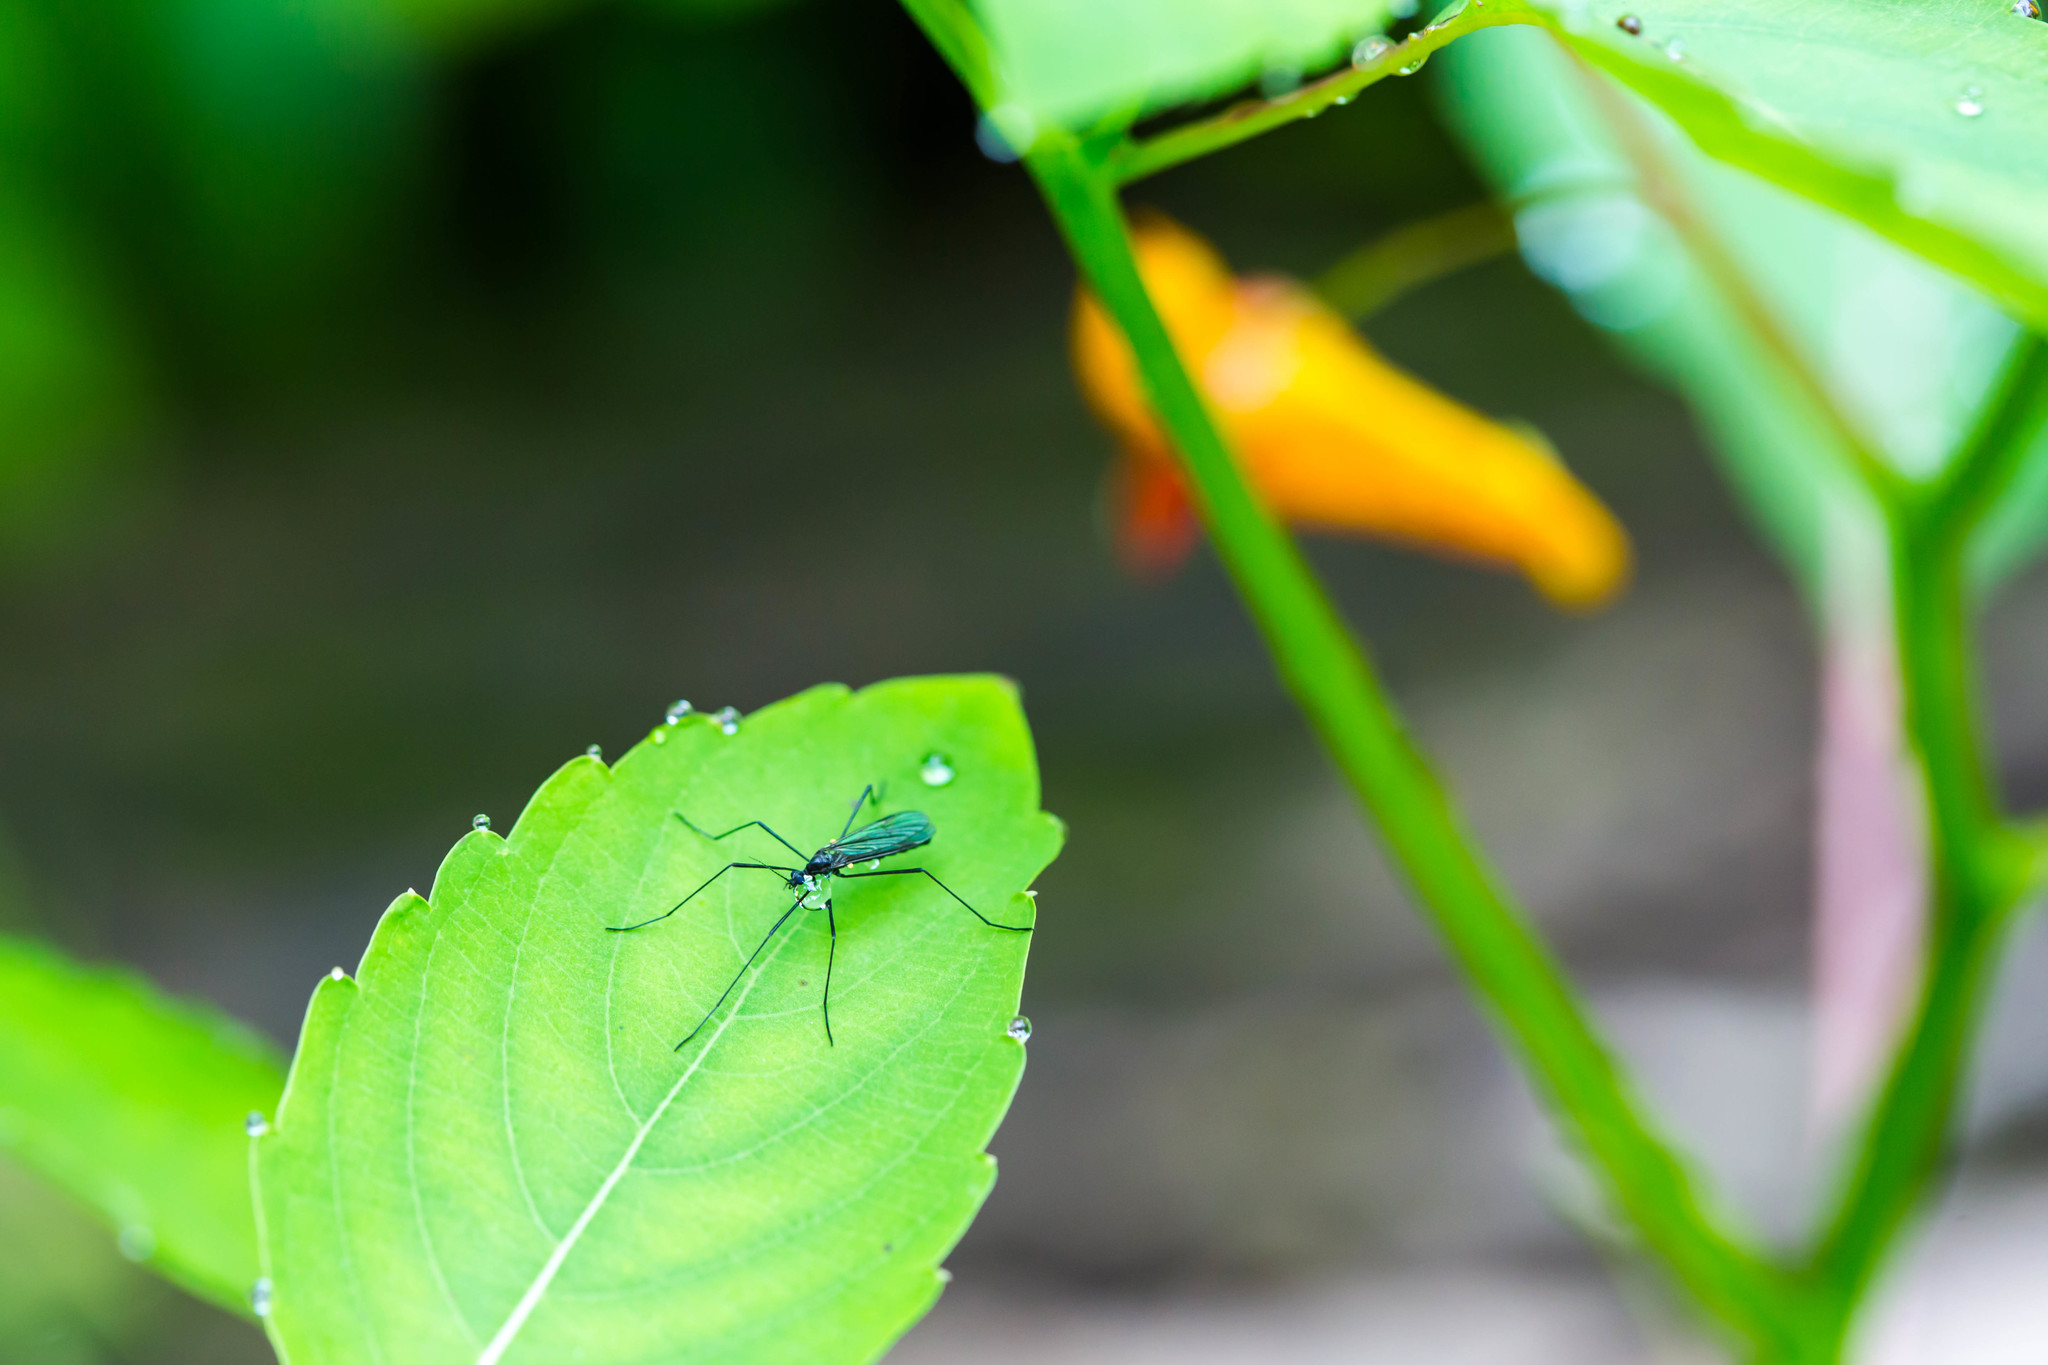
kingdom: Animalia
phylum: Arthropoda
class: Insecta
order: Diptera
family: Limoniidae
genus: Gnophomyia
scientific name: Gnophomyia tristissima
